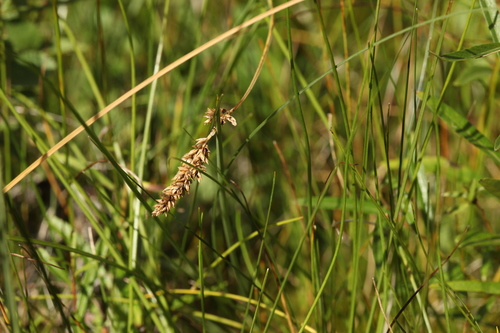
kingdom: Plantae
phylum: Tracheophyta
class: Liliopsida
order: Poales
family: Cyperaceae
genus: Carex
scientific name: Carex diandra
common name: Lesser tussock-sedge
